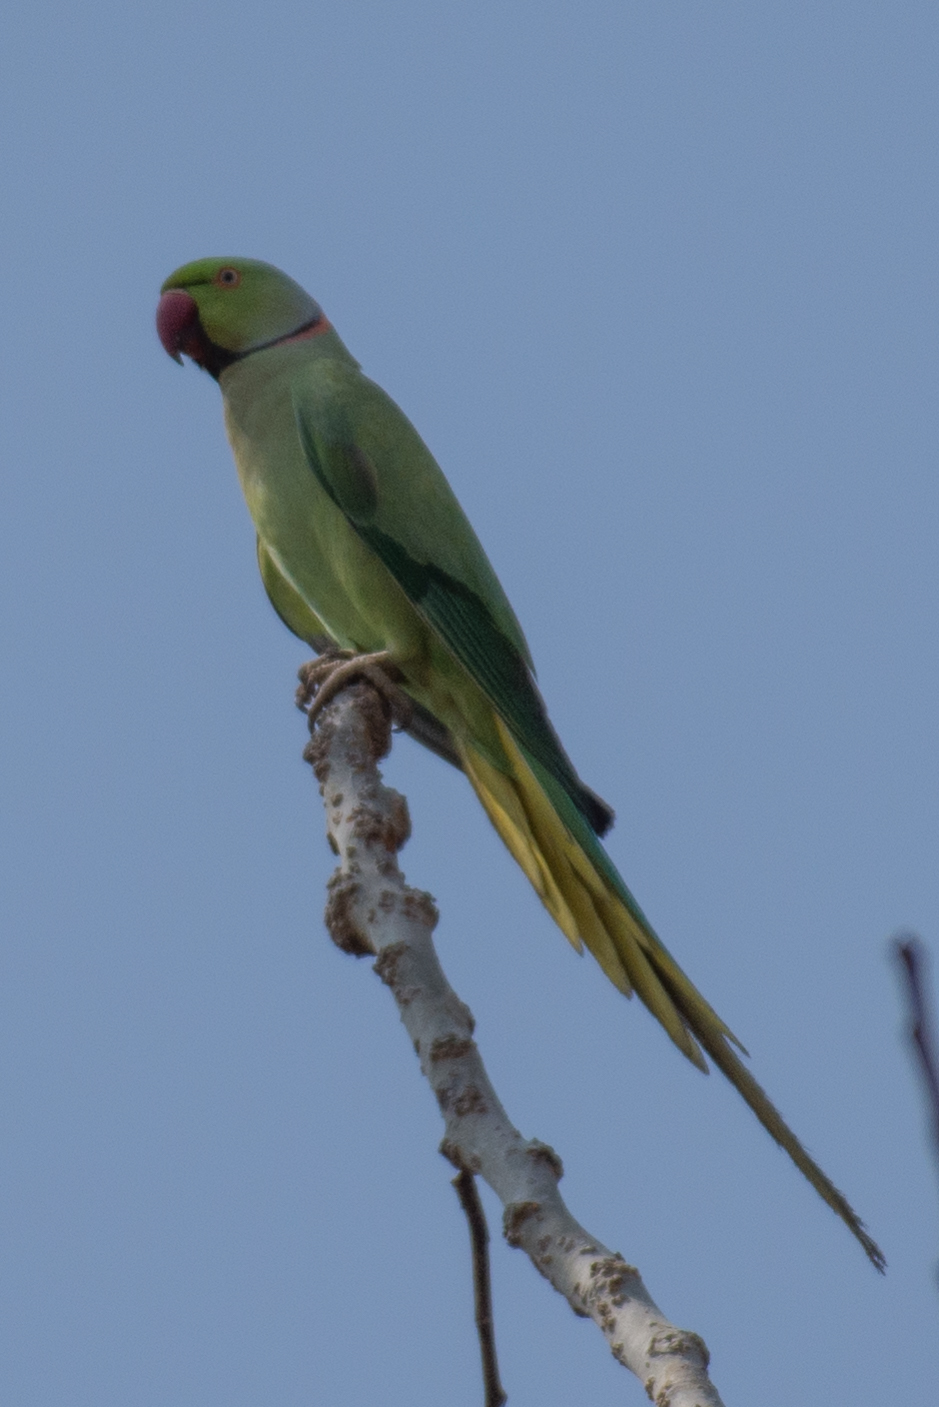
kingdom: Animalia
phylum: Chordata
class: Aves
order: Psittaciformes
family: Psittacidae
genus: Psittacula
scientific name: Psittacula krameri
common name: Rose-ringed parakeet
